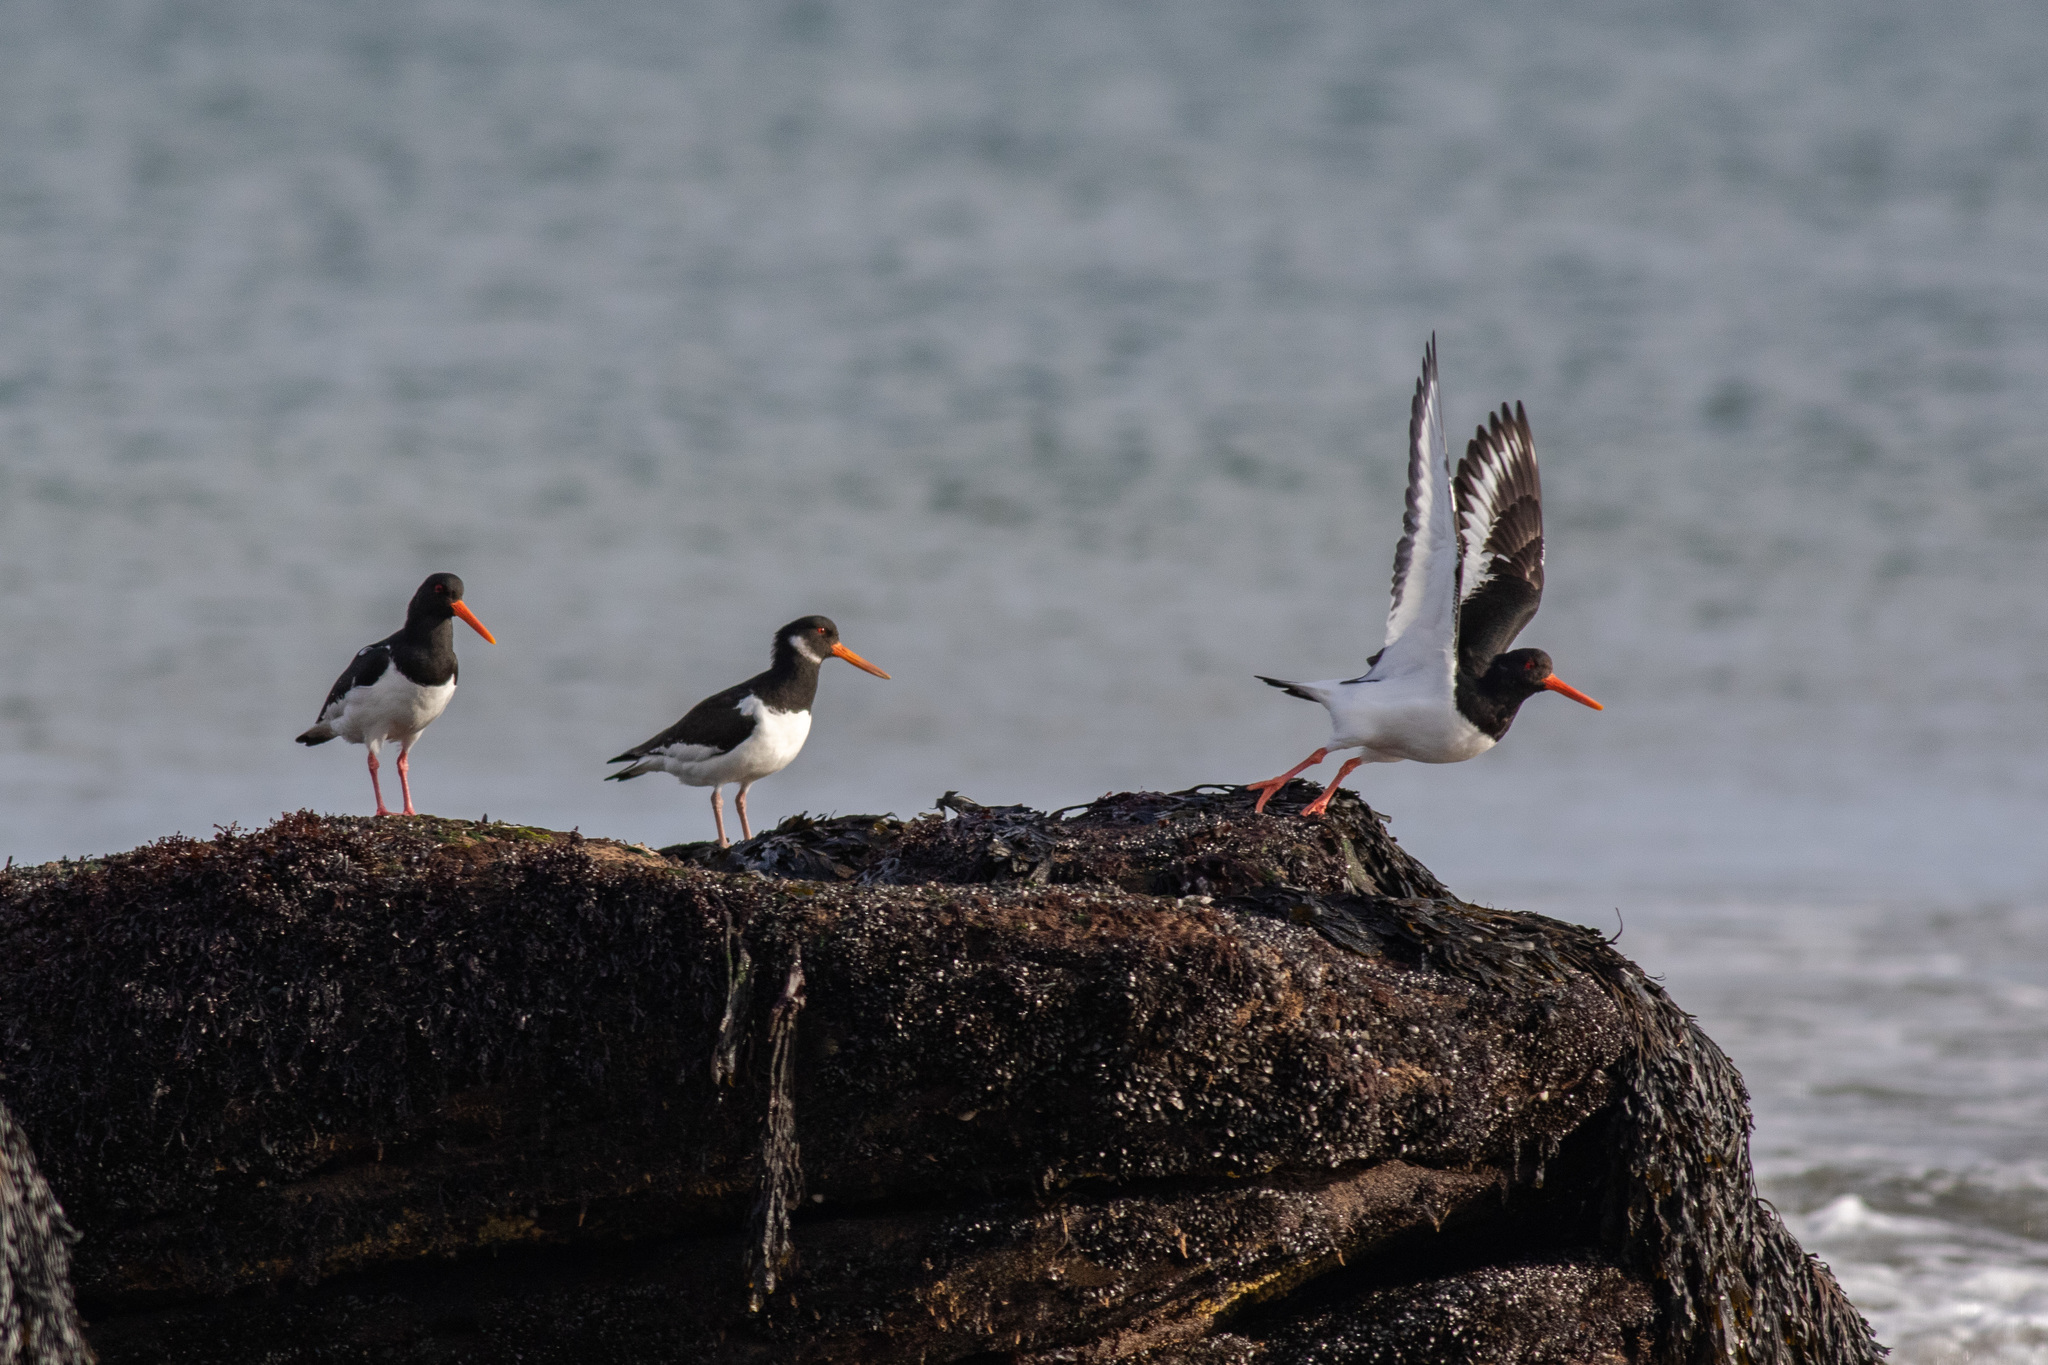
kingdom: Animalia
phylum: Chordata
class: Aves
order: Charadriiformes
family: Haematopodidae
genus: Haematopus
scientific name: Haematopus ostralegus
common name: Eurasian oystercatcher
